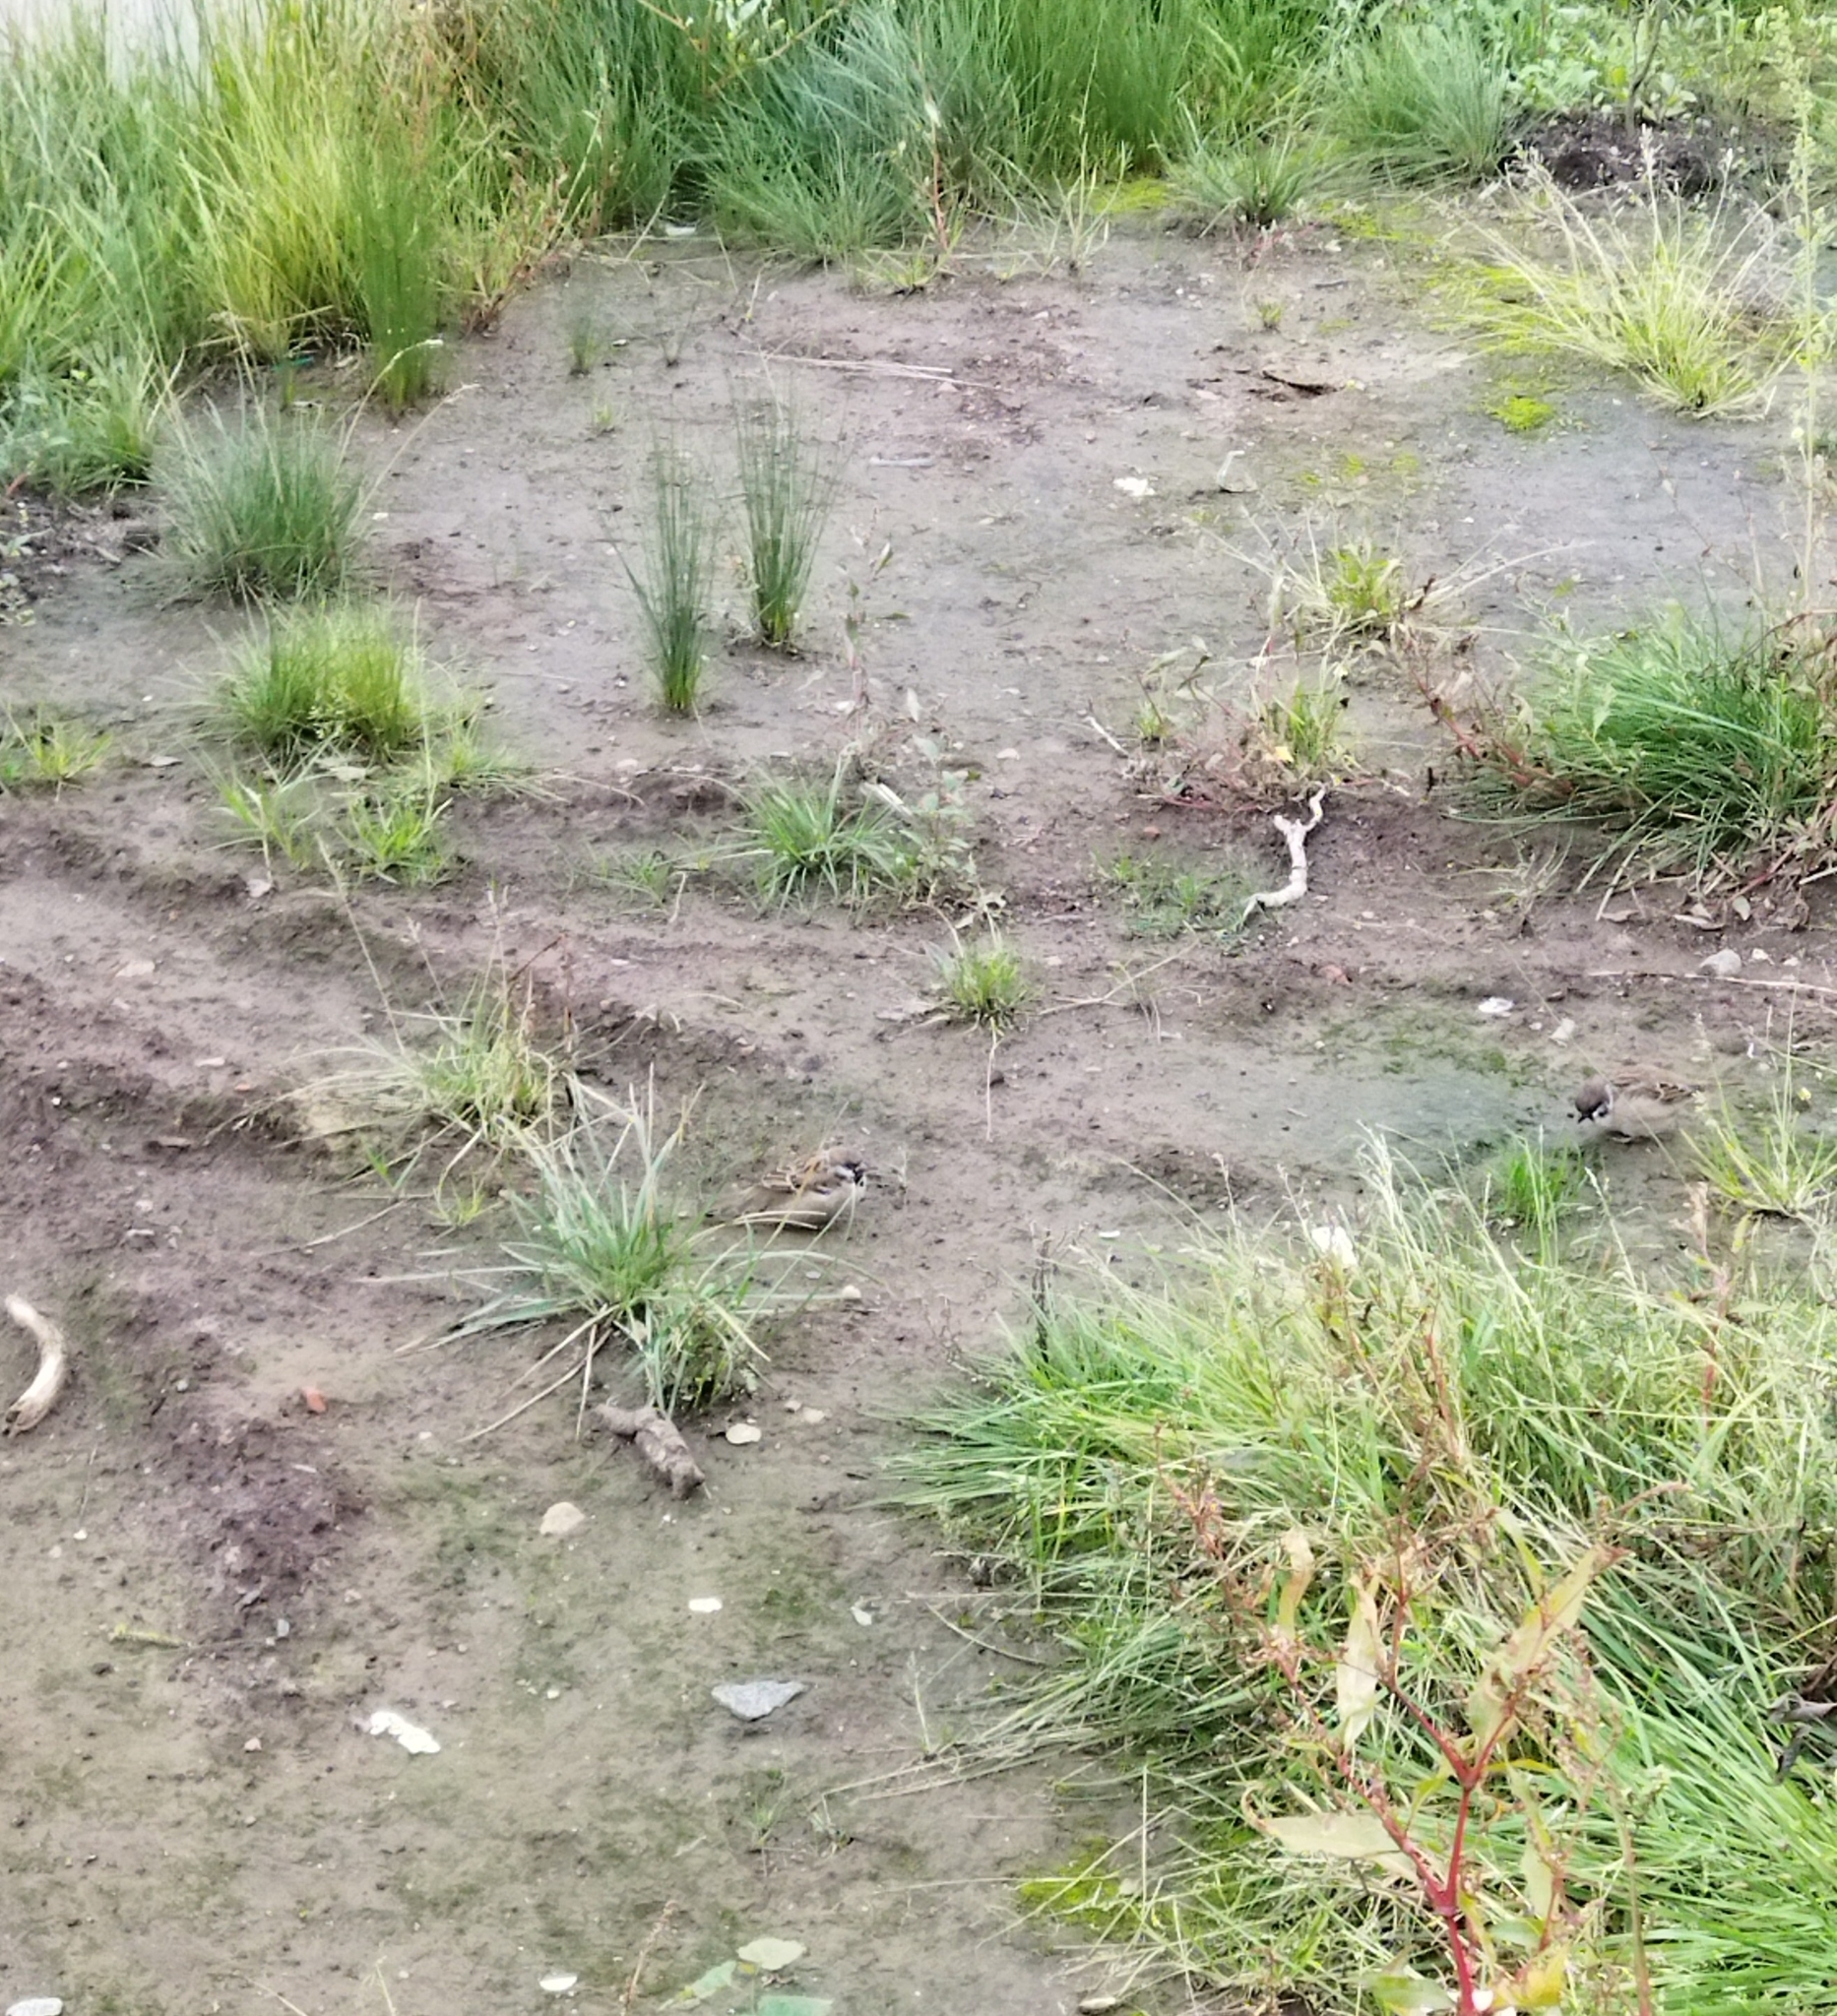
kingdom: Animalia
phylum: Chordata
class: Aves
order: Passeriformes
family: Passeridae
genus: Passer
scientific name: Passer montanus
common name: Eurasian tree sparrow
